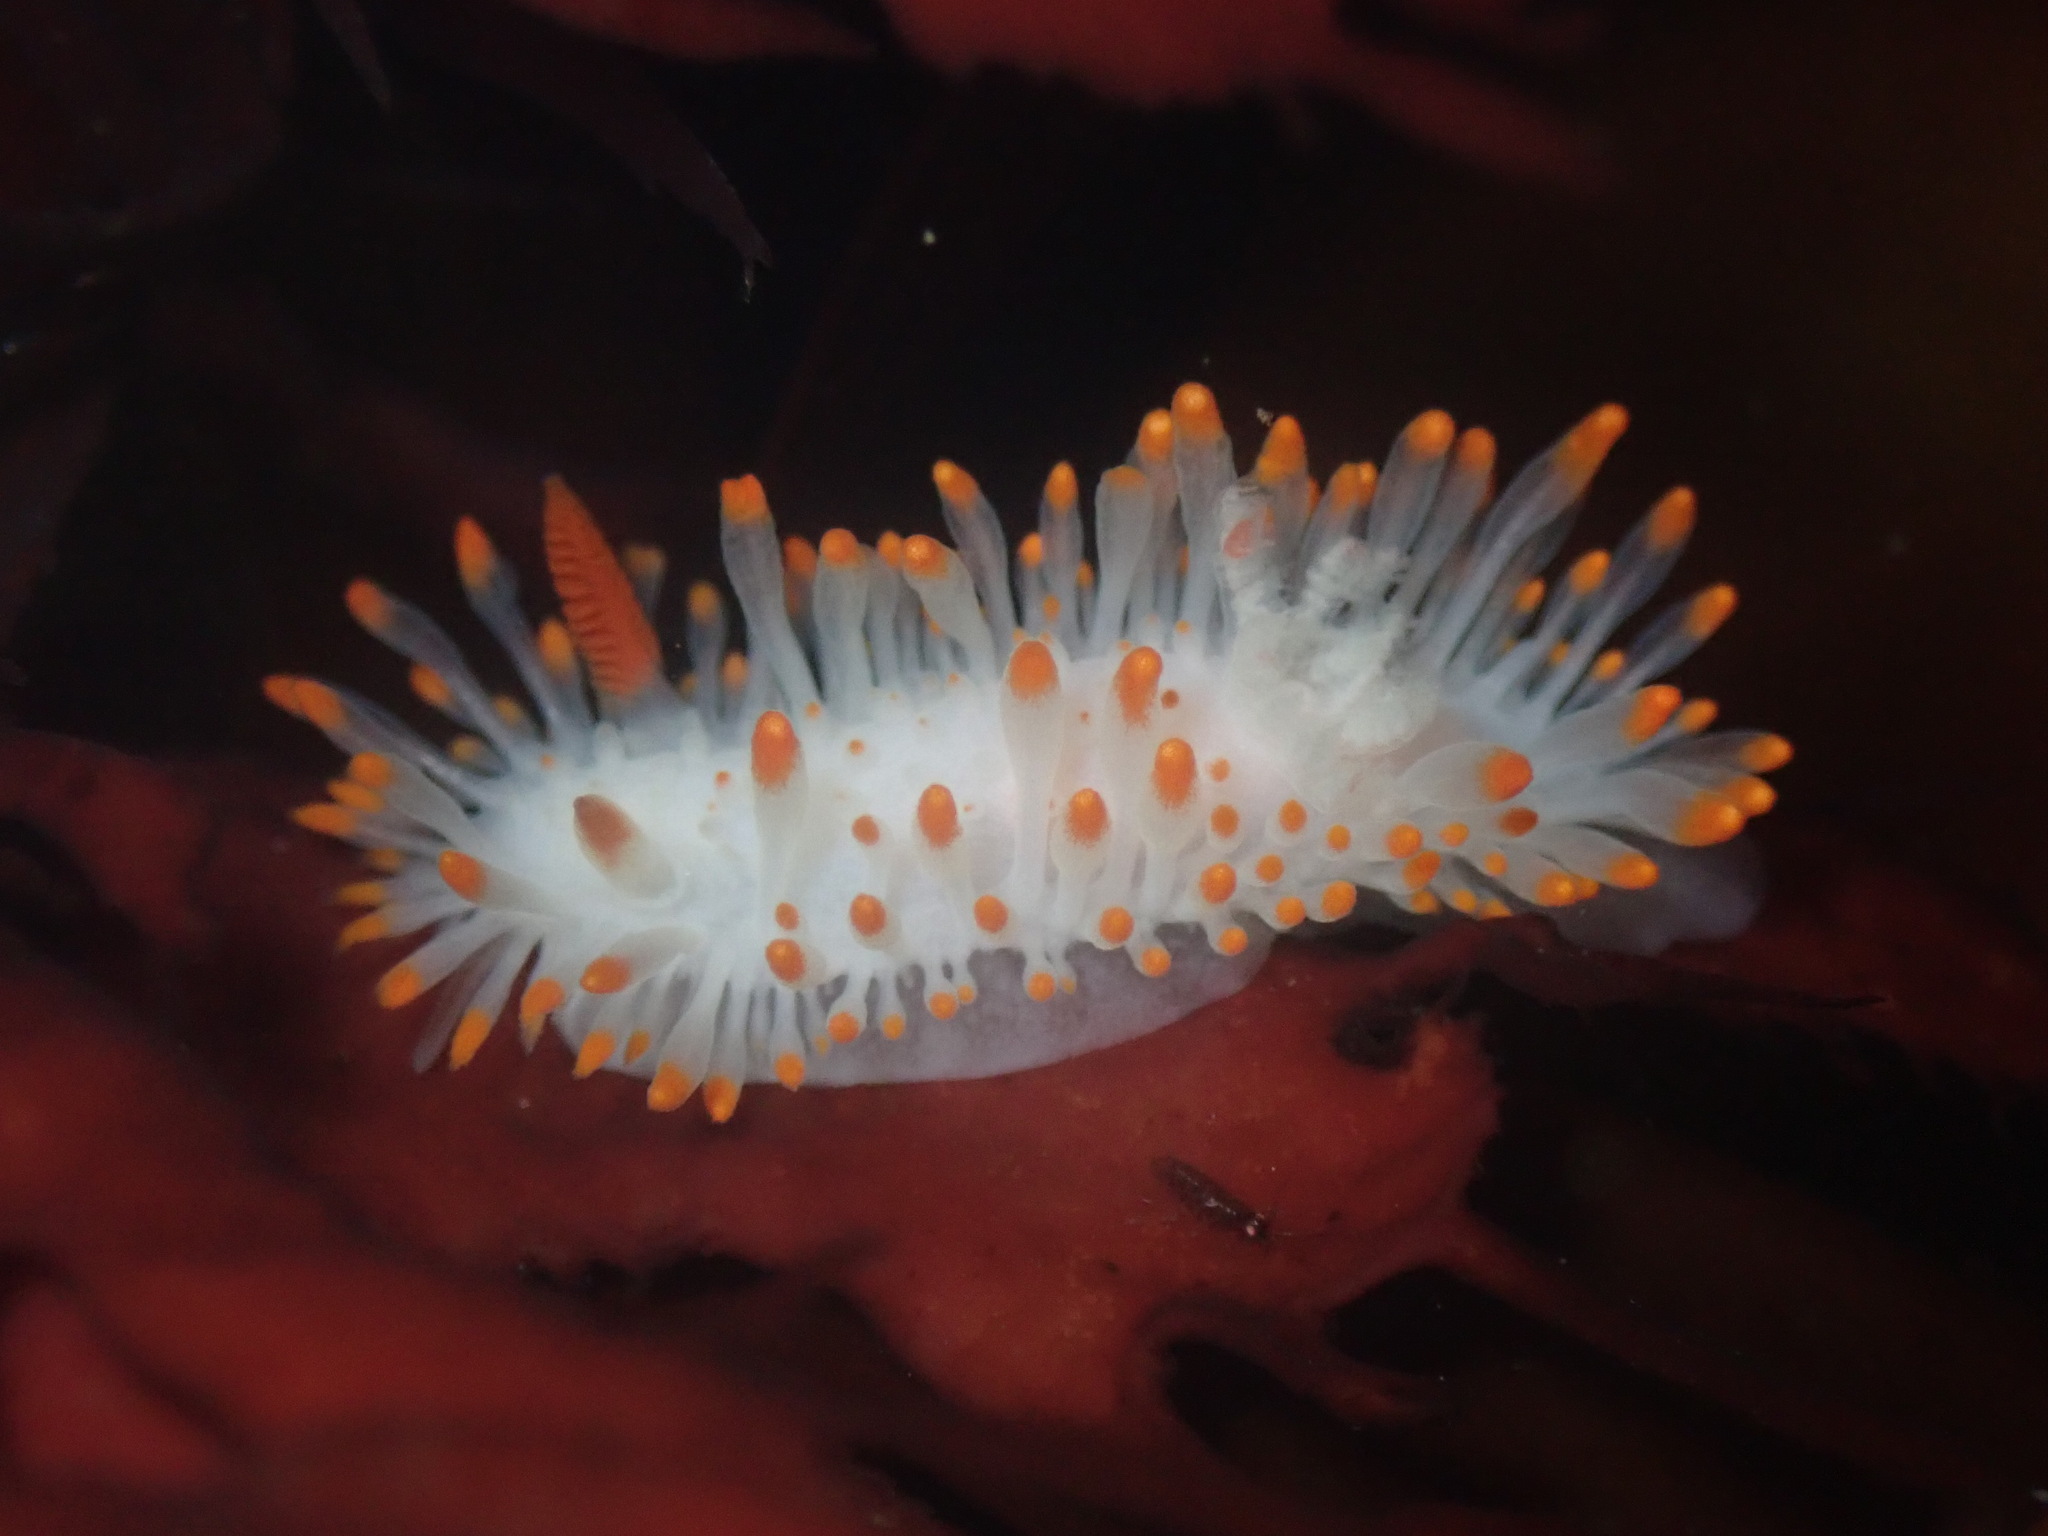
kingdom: Animalia
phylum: Mollusca
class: Gastropoda
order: Nudibranchia
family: Polyceridae
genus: Limacia
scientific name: Limacia cockerelli
